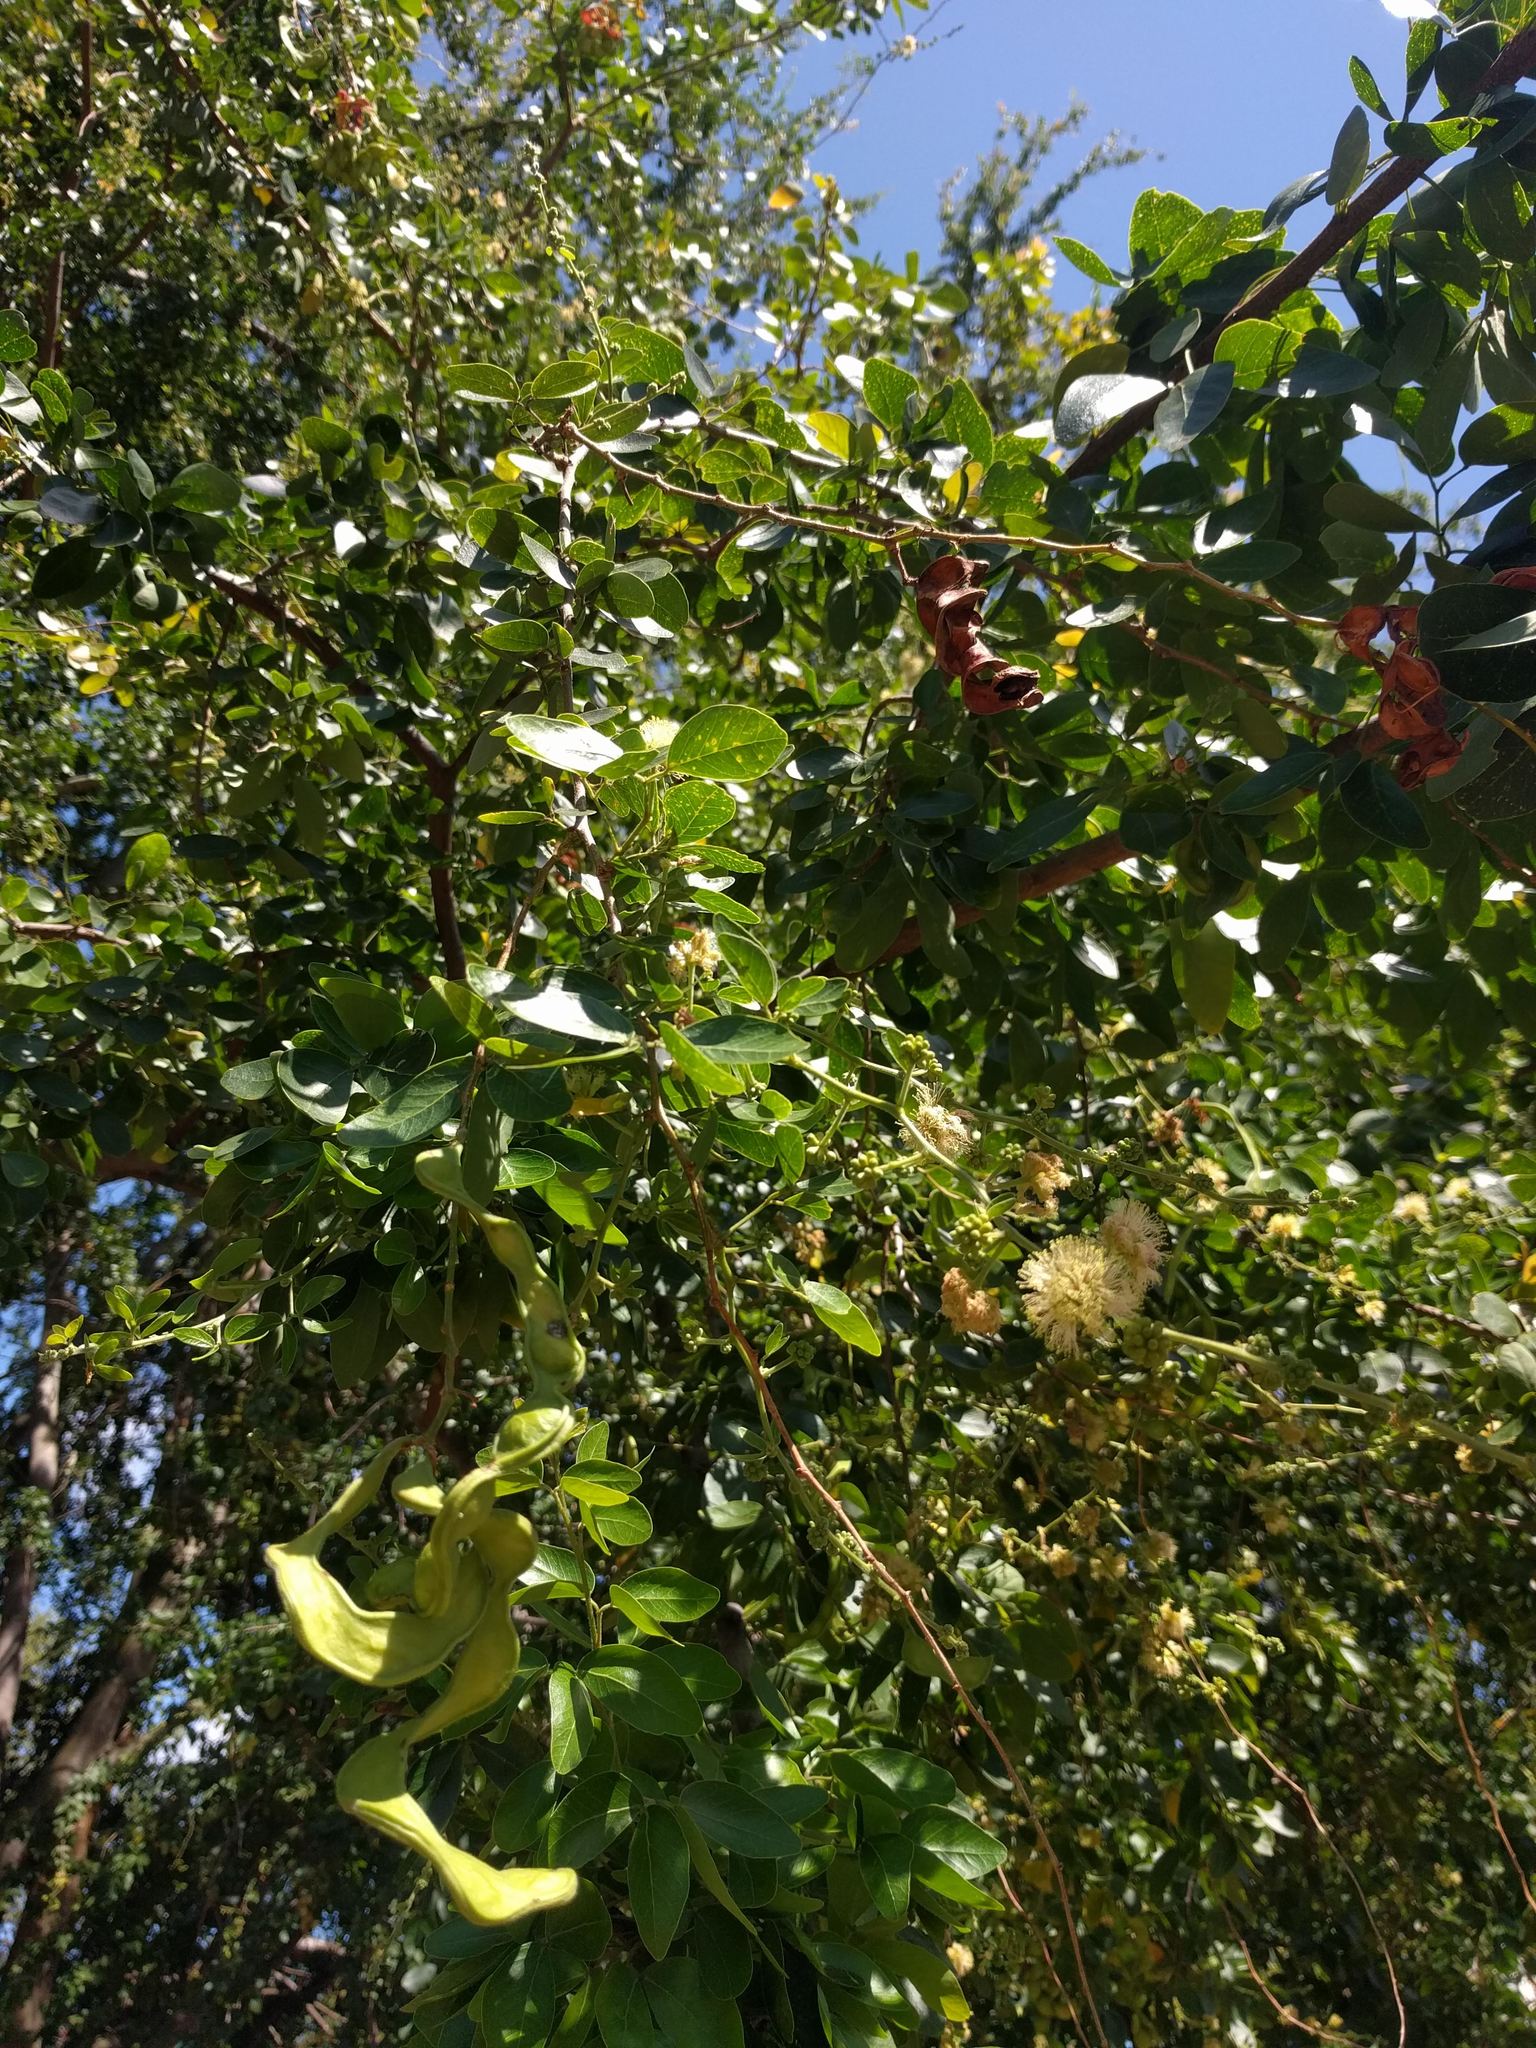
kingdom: Plantae
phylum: Tracheophyta
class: Magnoliopsida
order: Fabales
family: Fabaceae
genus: Pithecellobium
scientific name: Pithecellobium dulce
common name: Monkeypod
